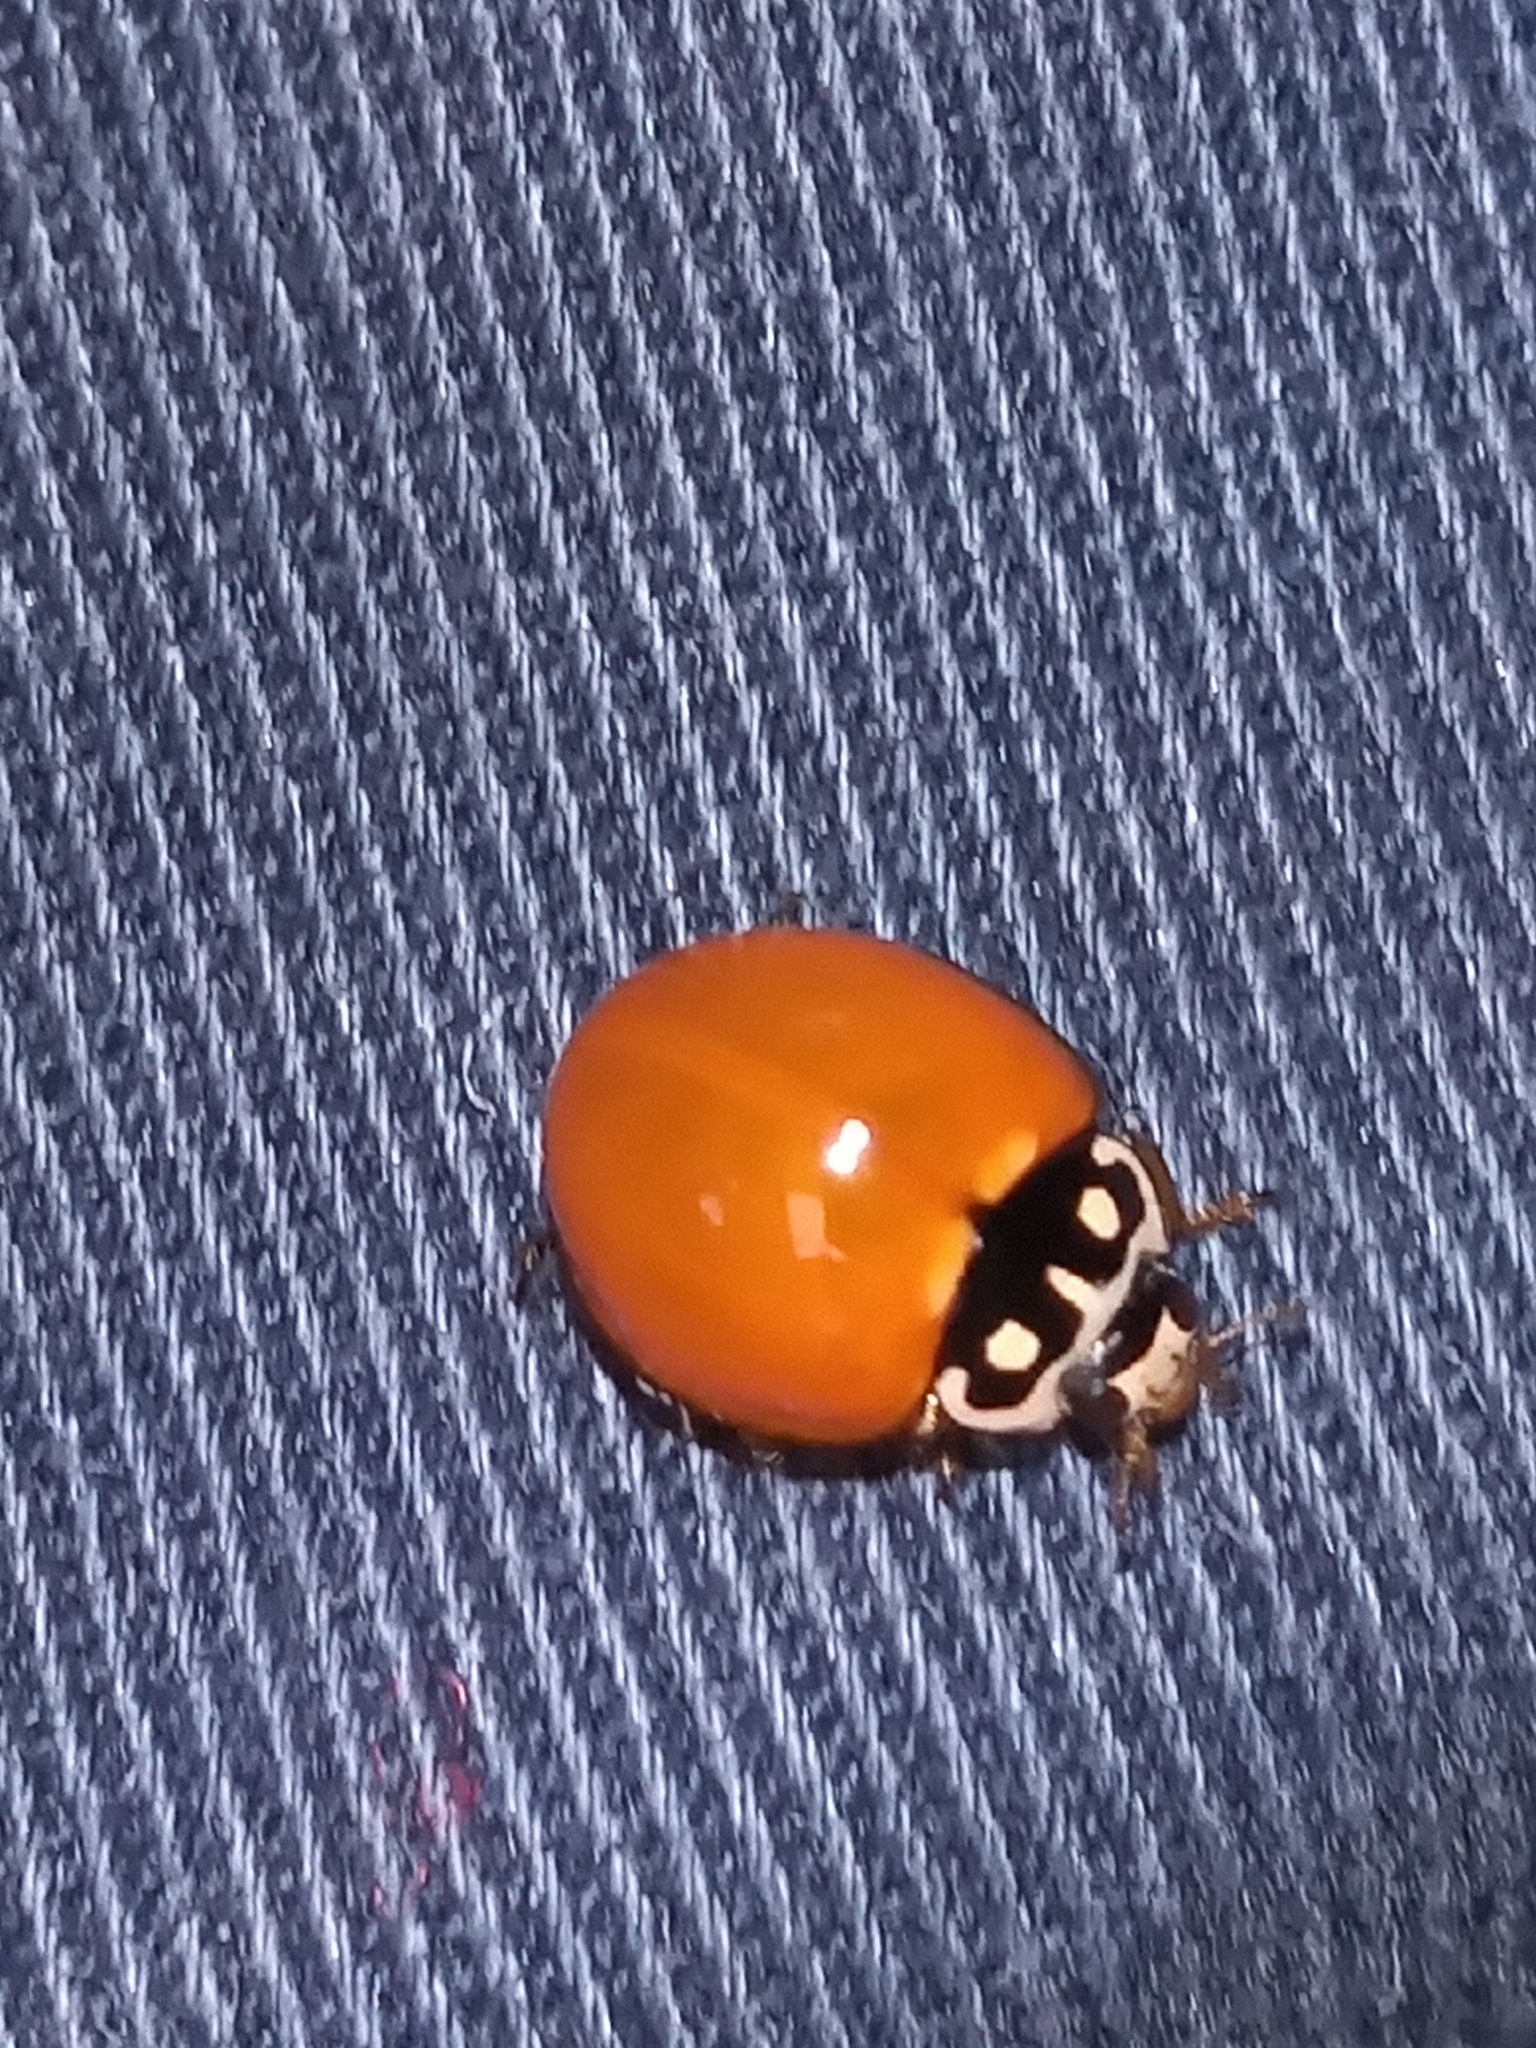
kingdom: Animalia
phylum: Arthropoda
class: Insecta
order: Coleoptera
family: Coccinellidae
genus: Cycloneda
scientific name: Cycloneda sanguinea
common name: Ladybird beetle
